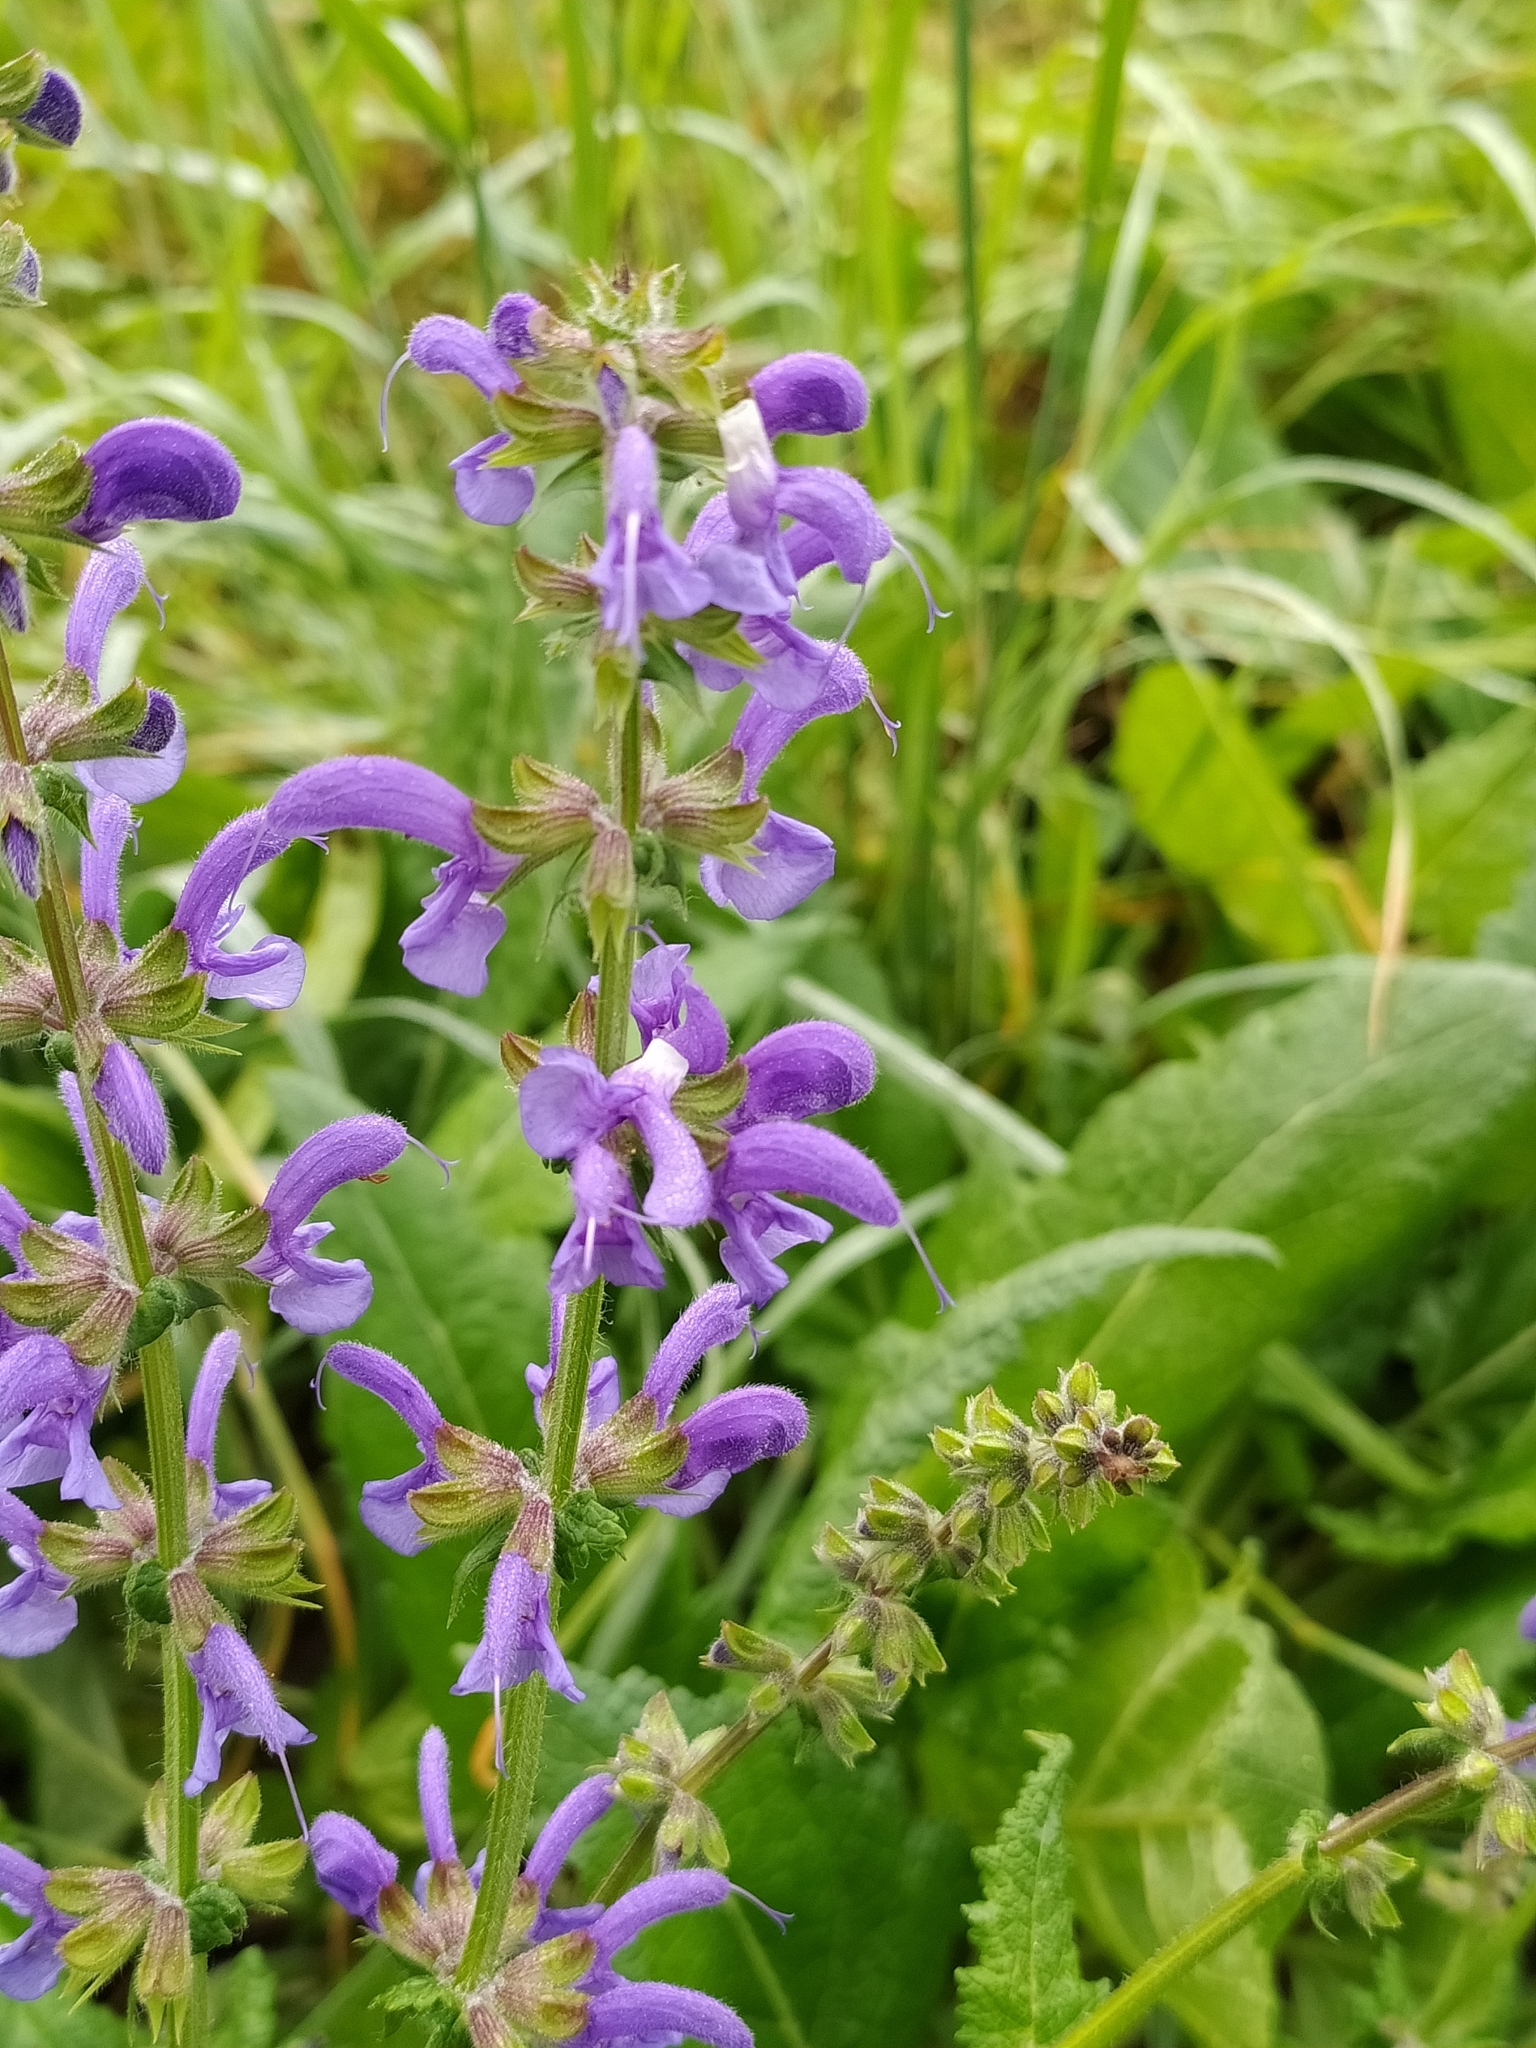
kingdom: Plantae
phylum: Tracheophyta
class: Magnoliopsida
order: Lamiales
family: Lamiaceae
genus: Salvia
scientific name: Salvia pratensis
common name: Meadow sage
